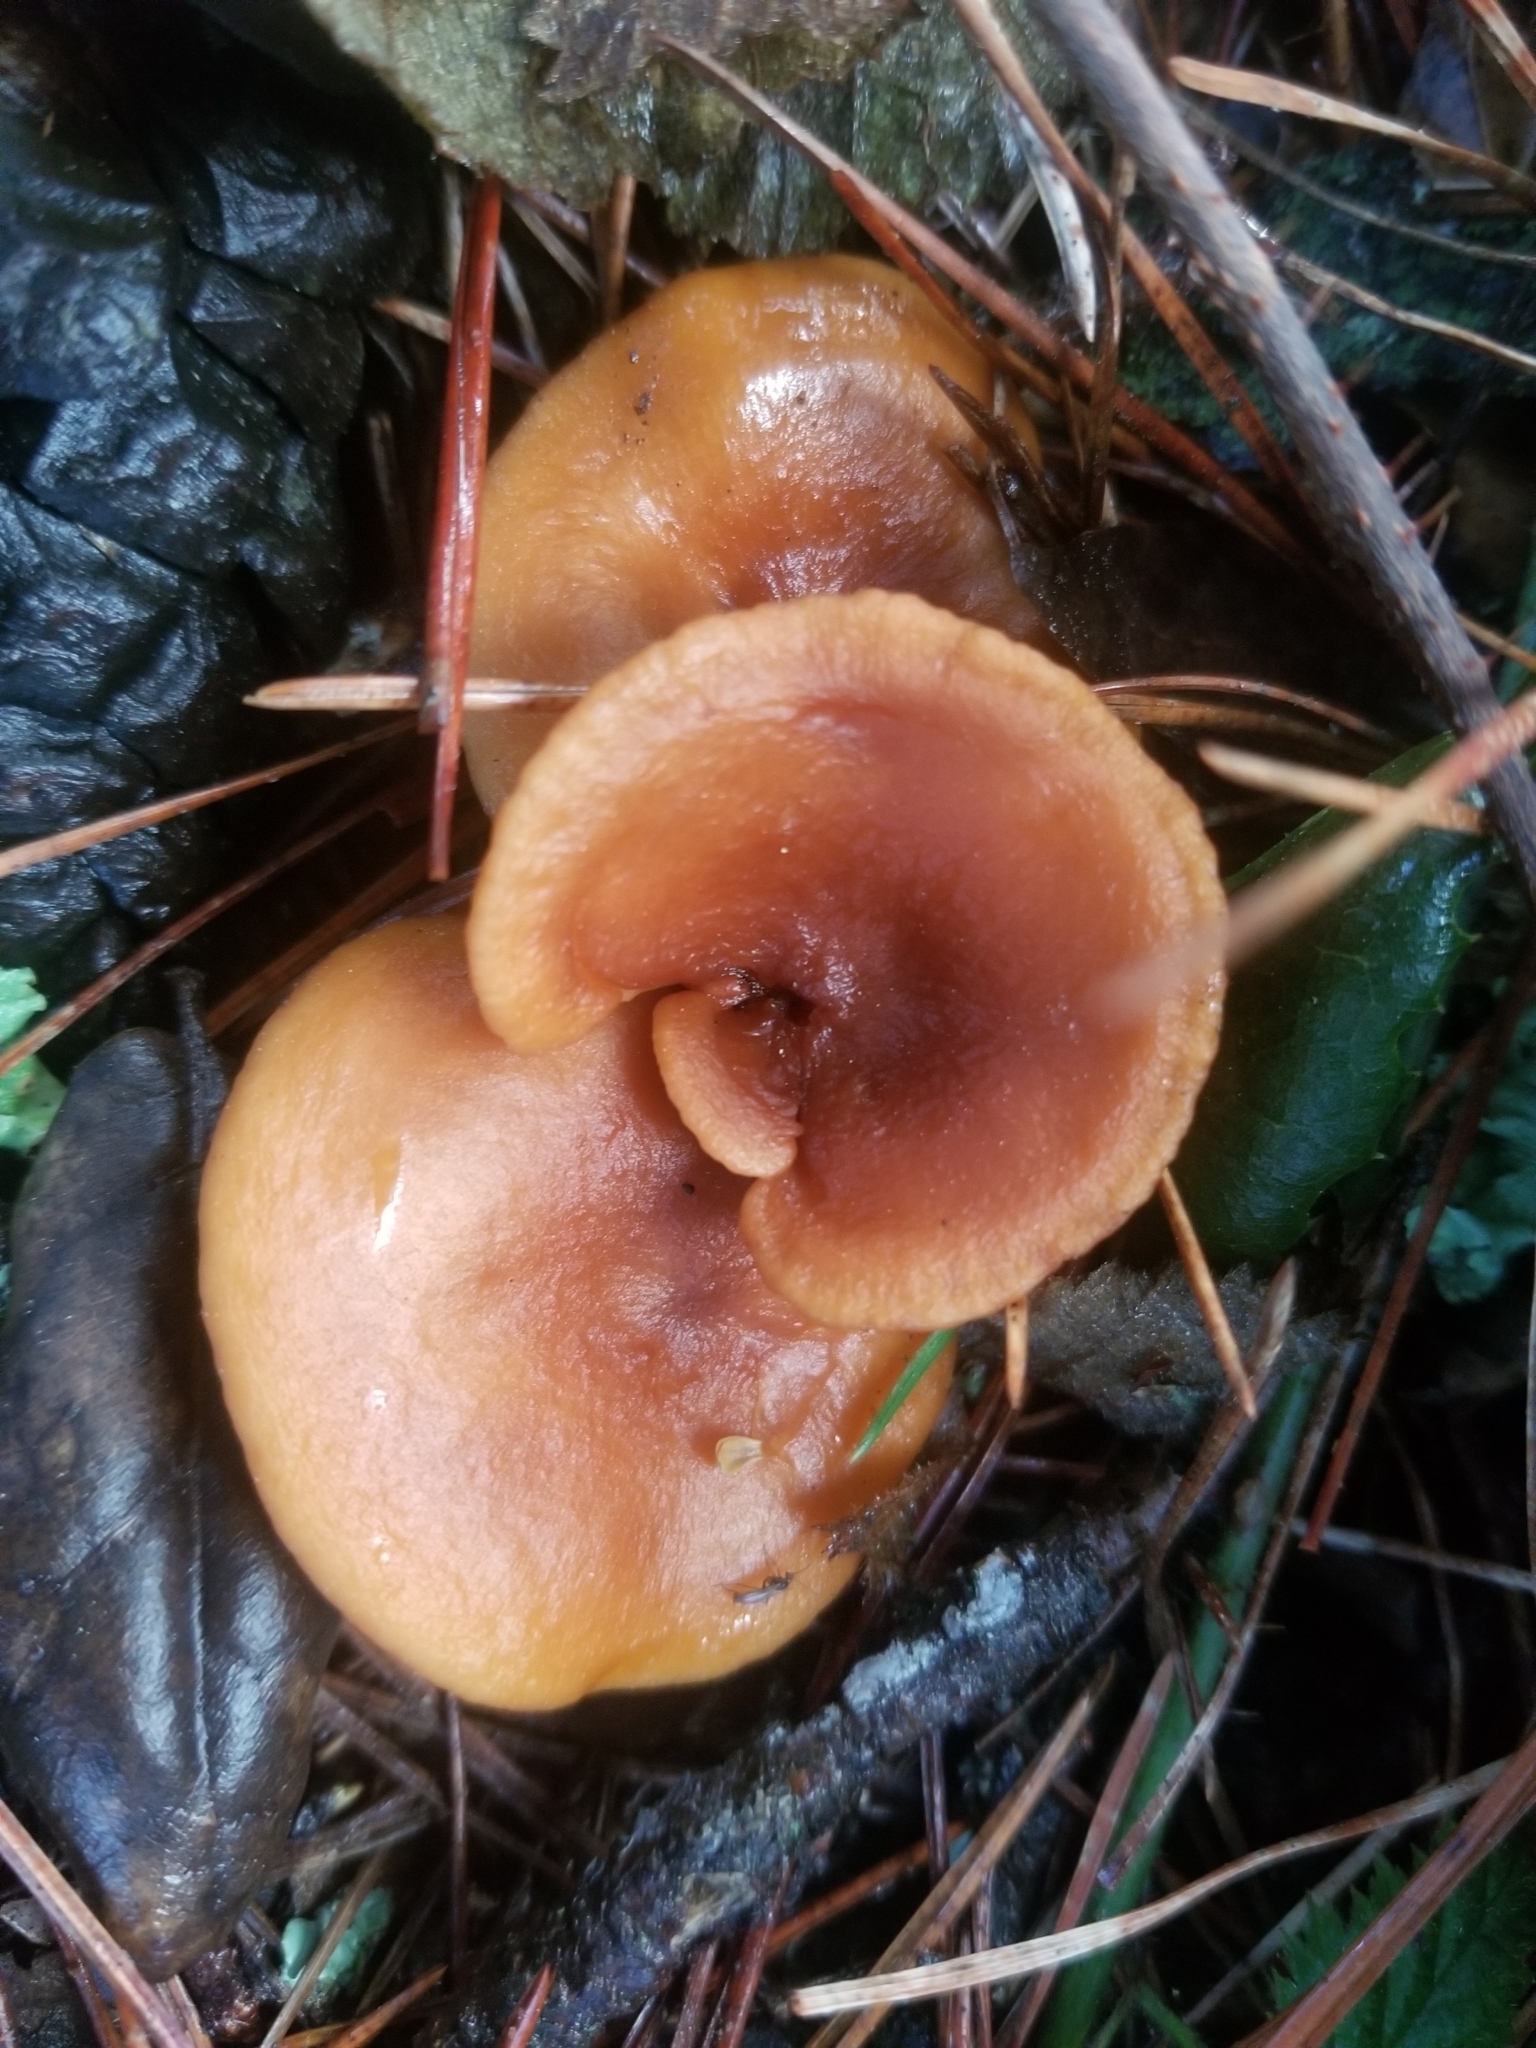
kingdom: Fungi
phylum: Basidiomycota
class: Agaricomycetes
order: Russulales
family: Russulaceae
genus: Lactarius
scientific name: Lactarius rubidus
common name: Candy cap
